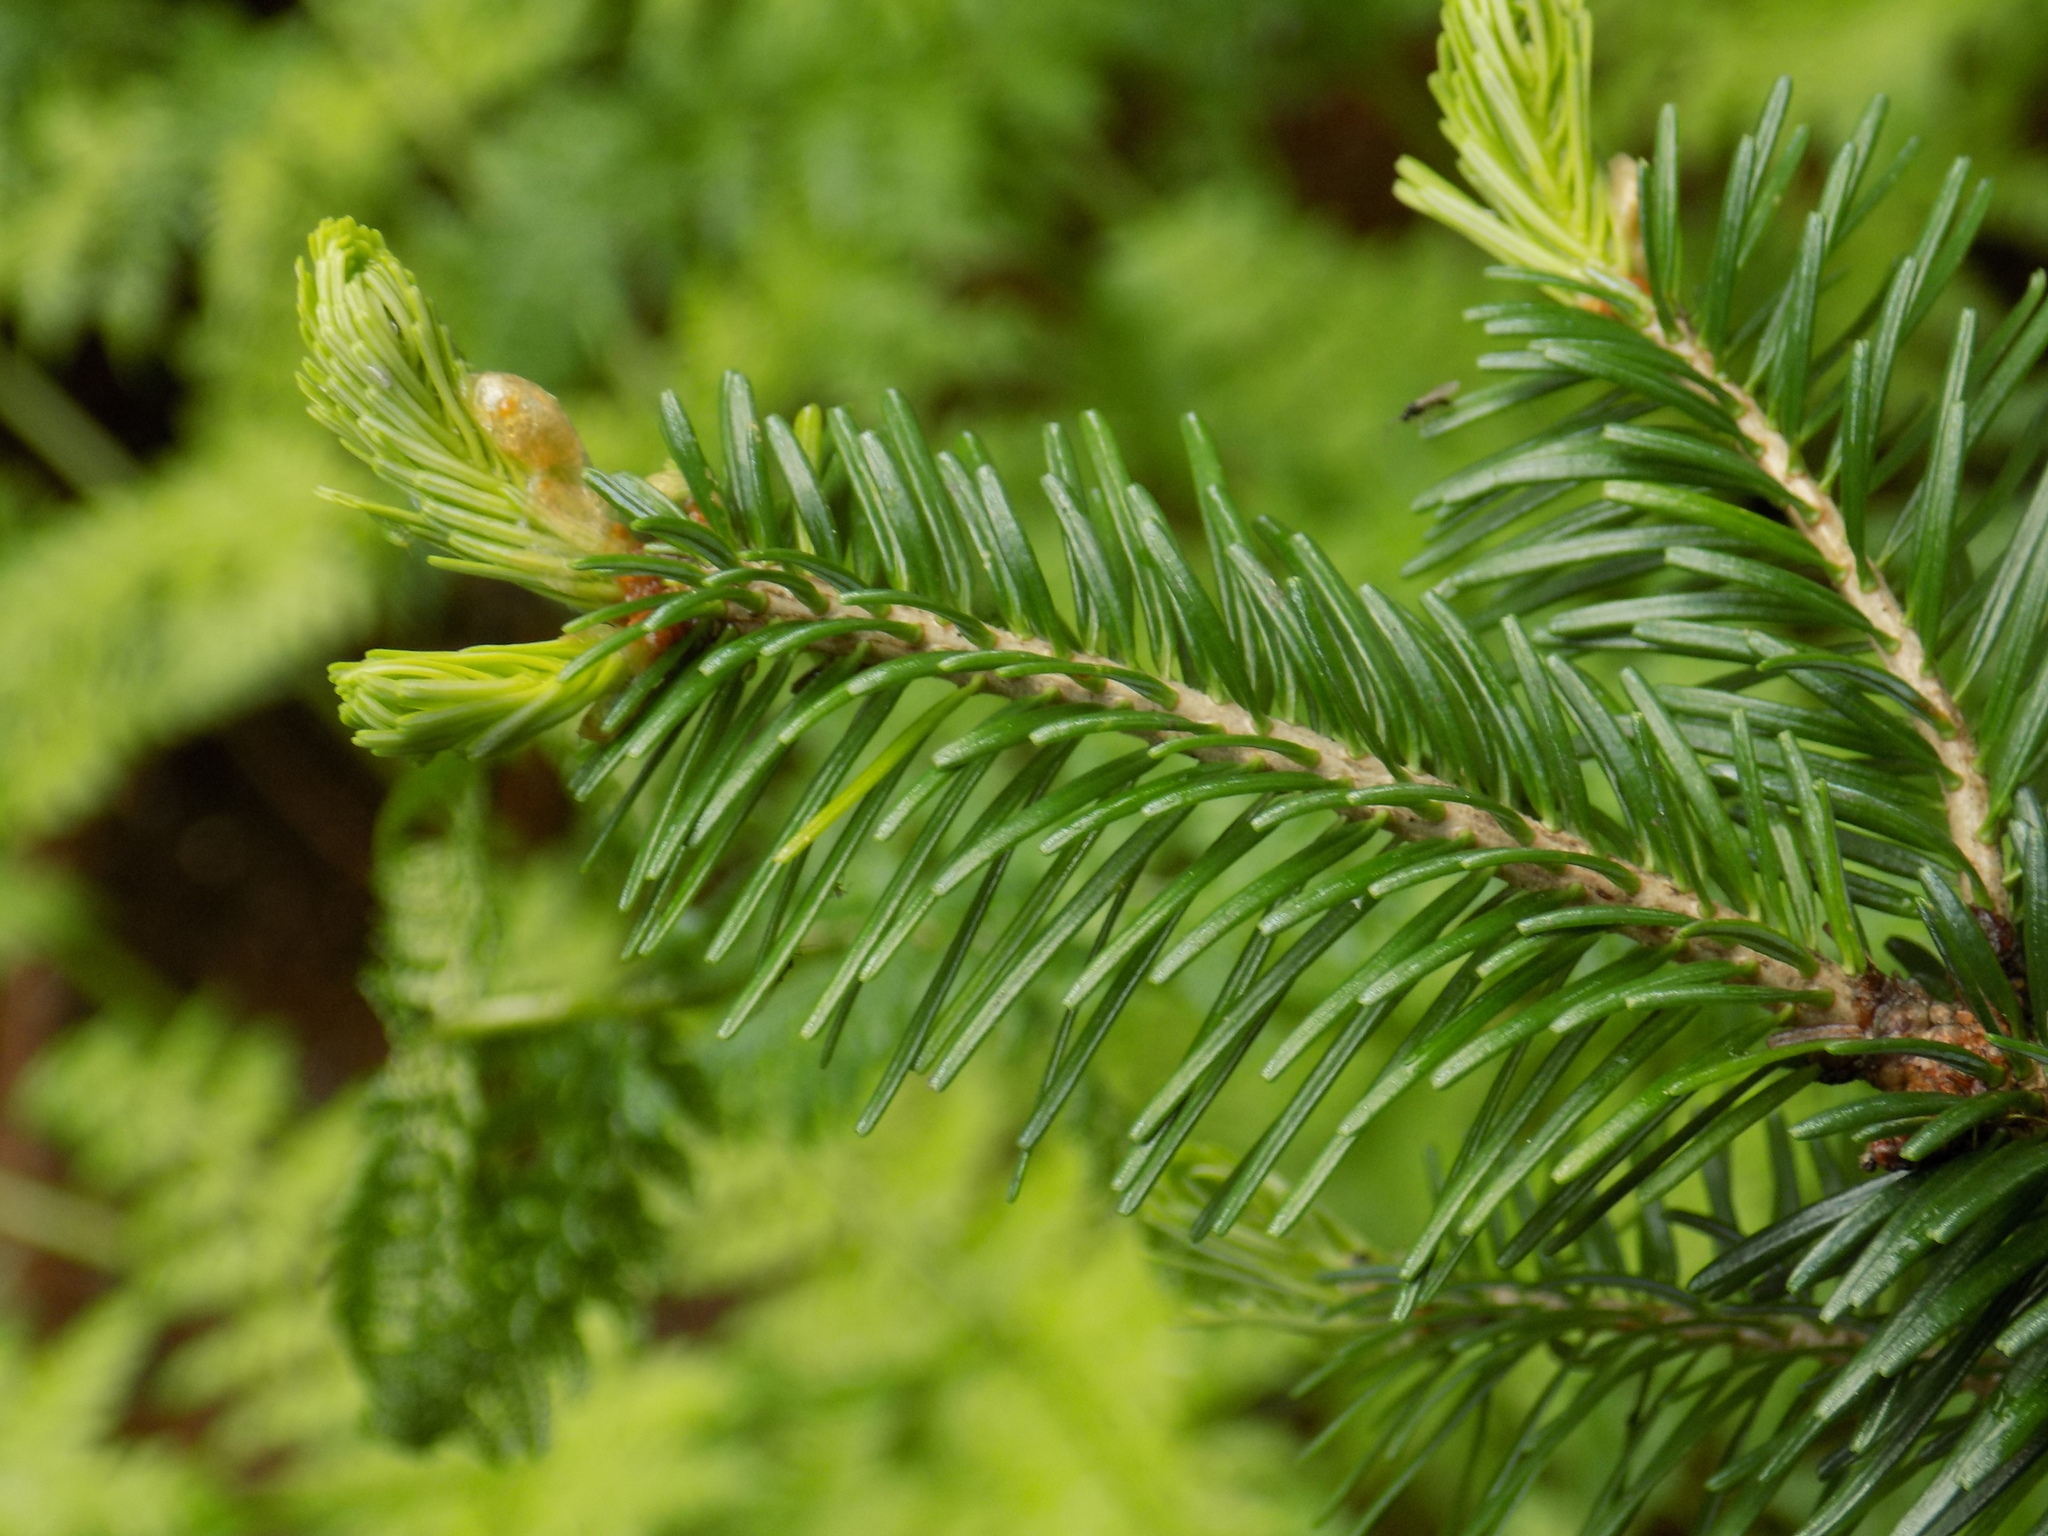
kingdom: Plantae
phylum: Tracheophyta
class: Pinopsida
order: Pinales
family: Pinaceae
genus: Abies
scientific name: Abies sibirica
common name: Siberian fir
